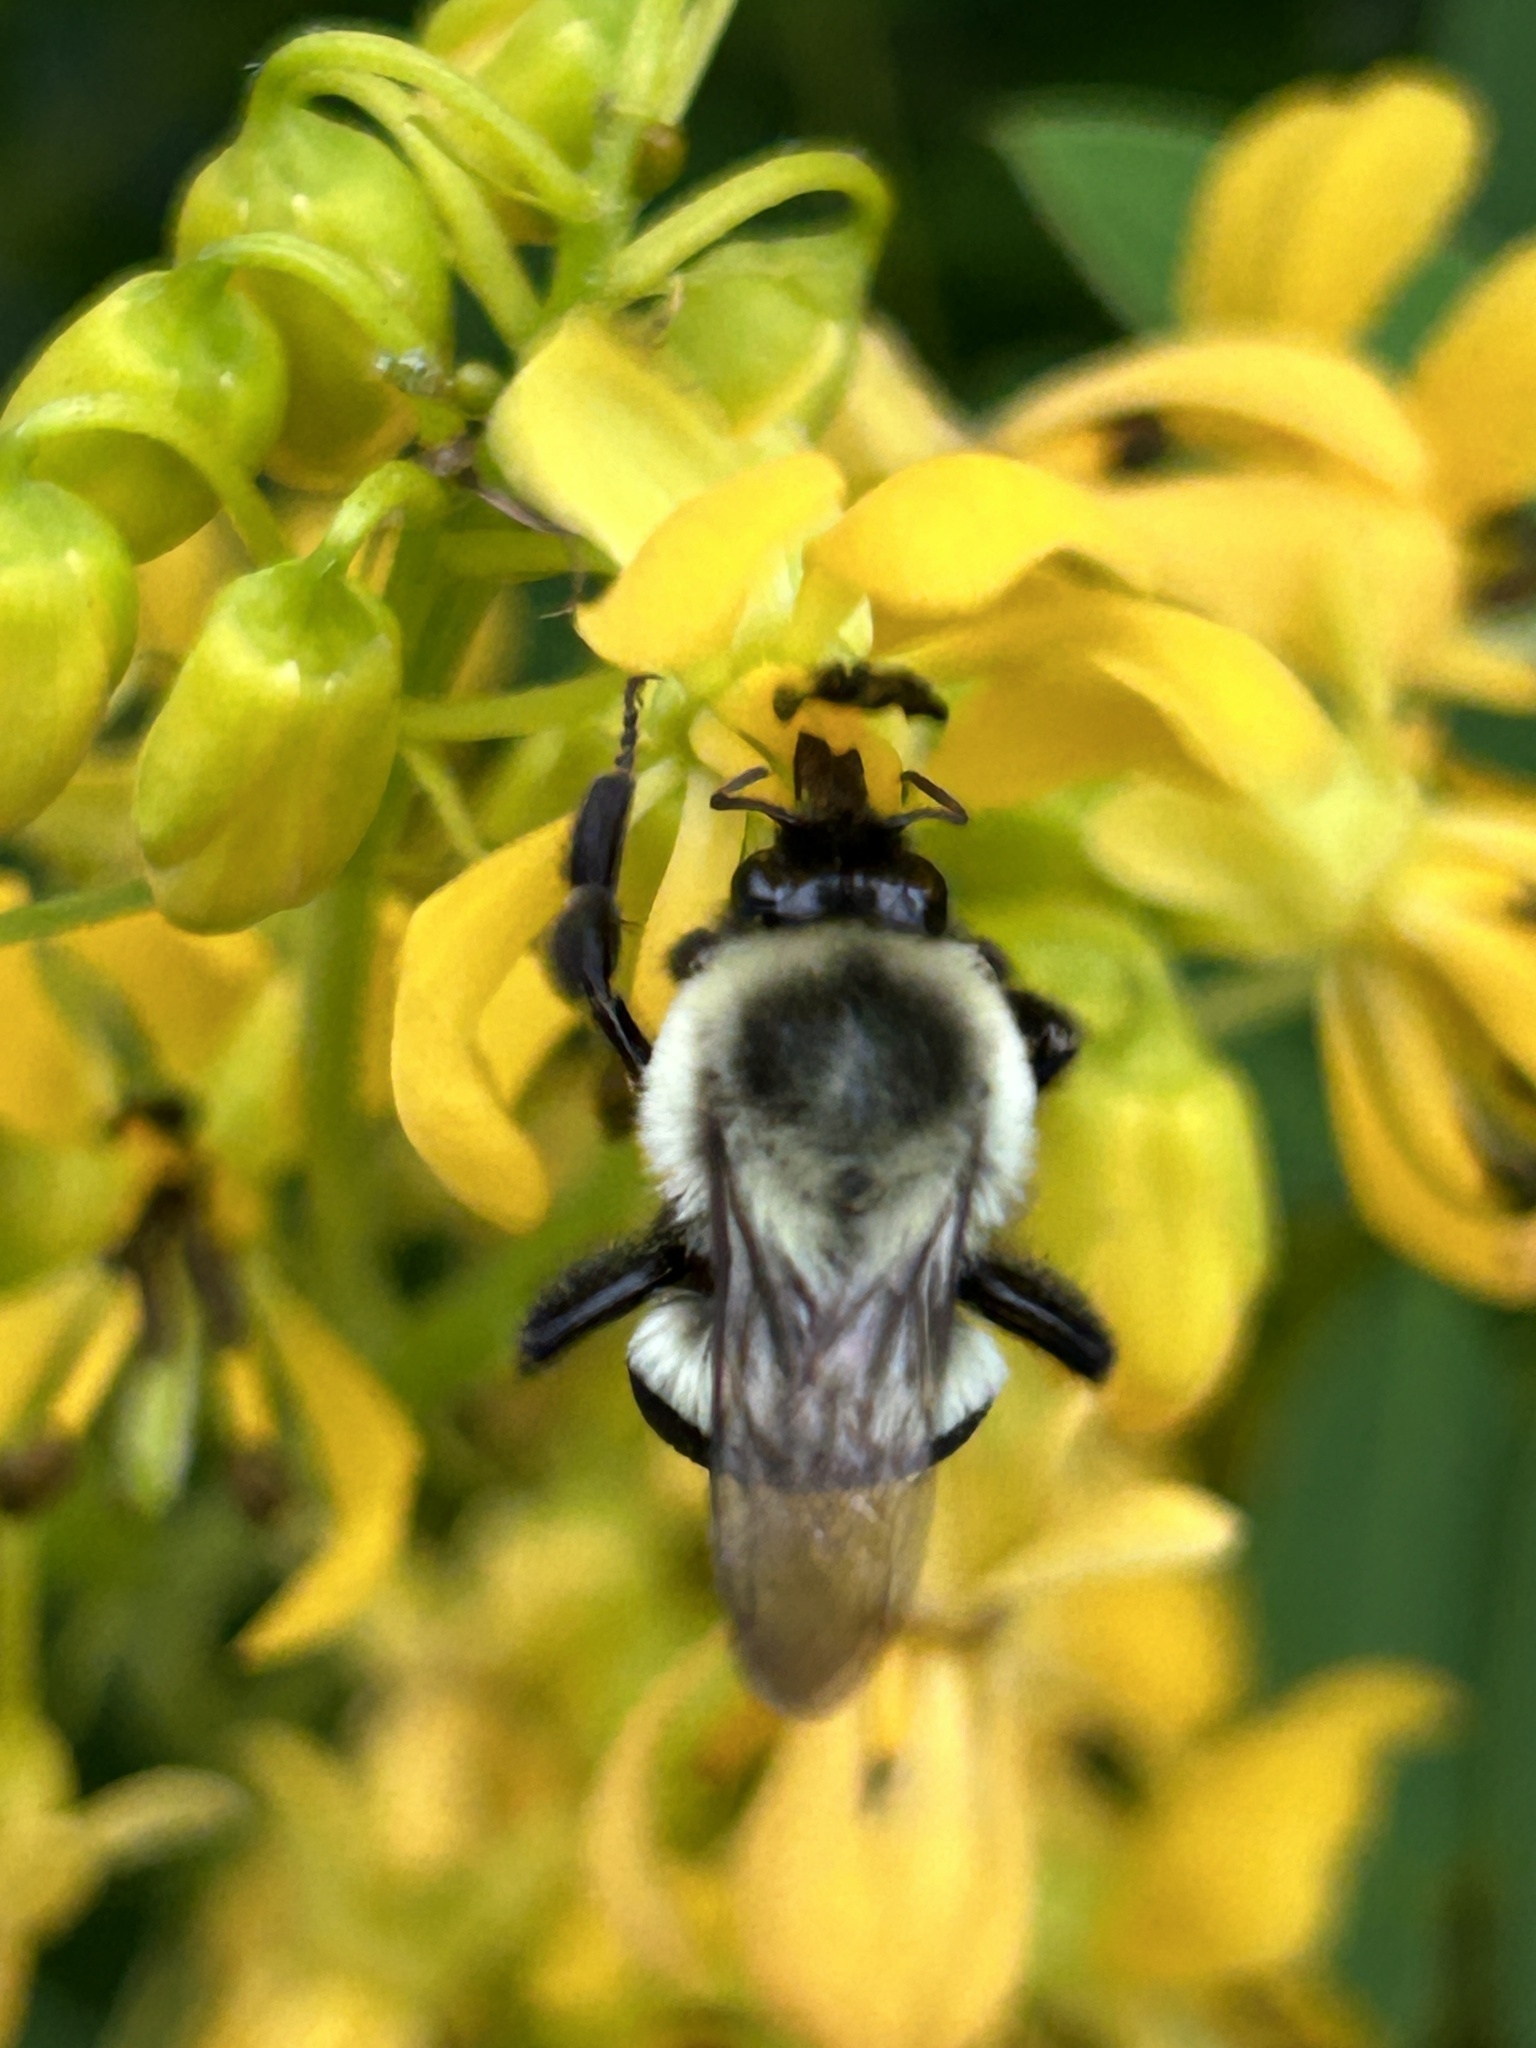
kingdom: Animalia
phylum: Arthropoda
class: Insecta
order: Hymenoptera
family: Apidae
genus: Bombus
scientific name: Bombus impatiens
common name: Common eastern bumble bee
